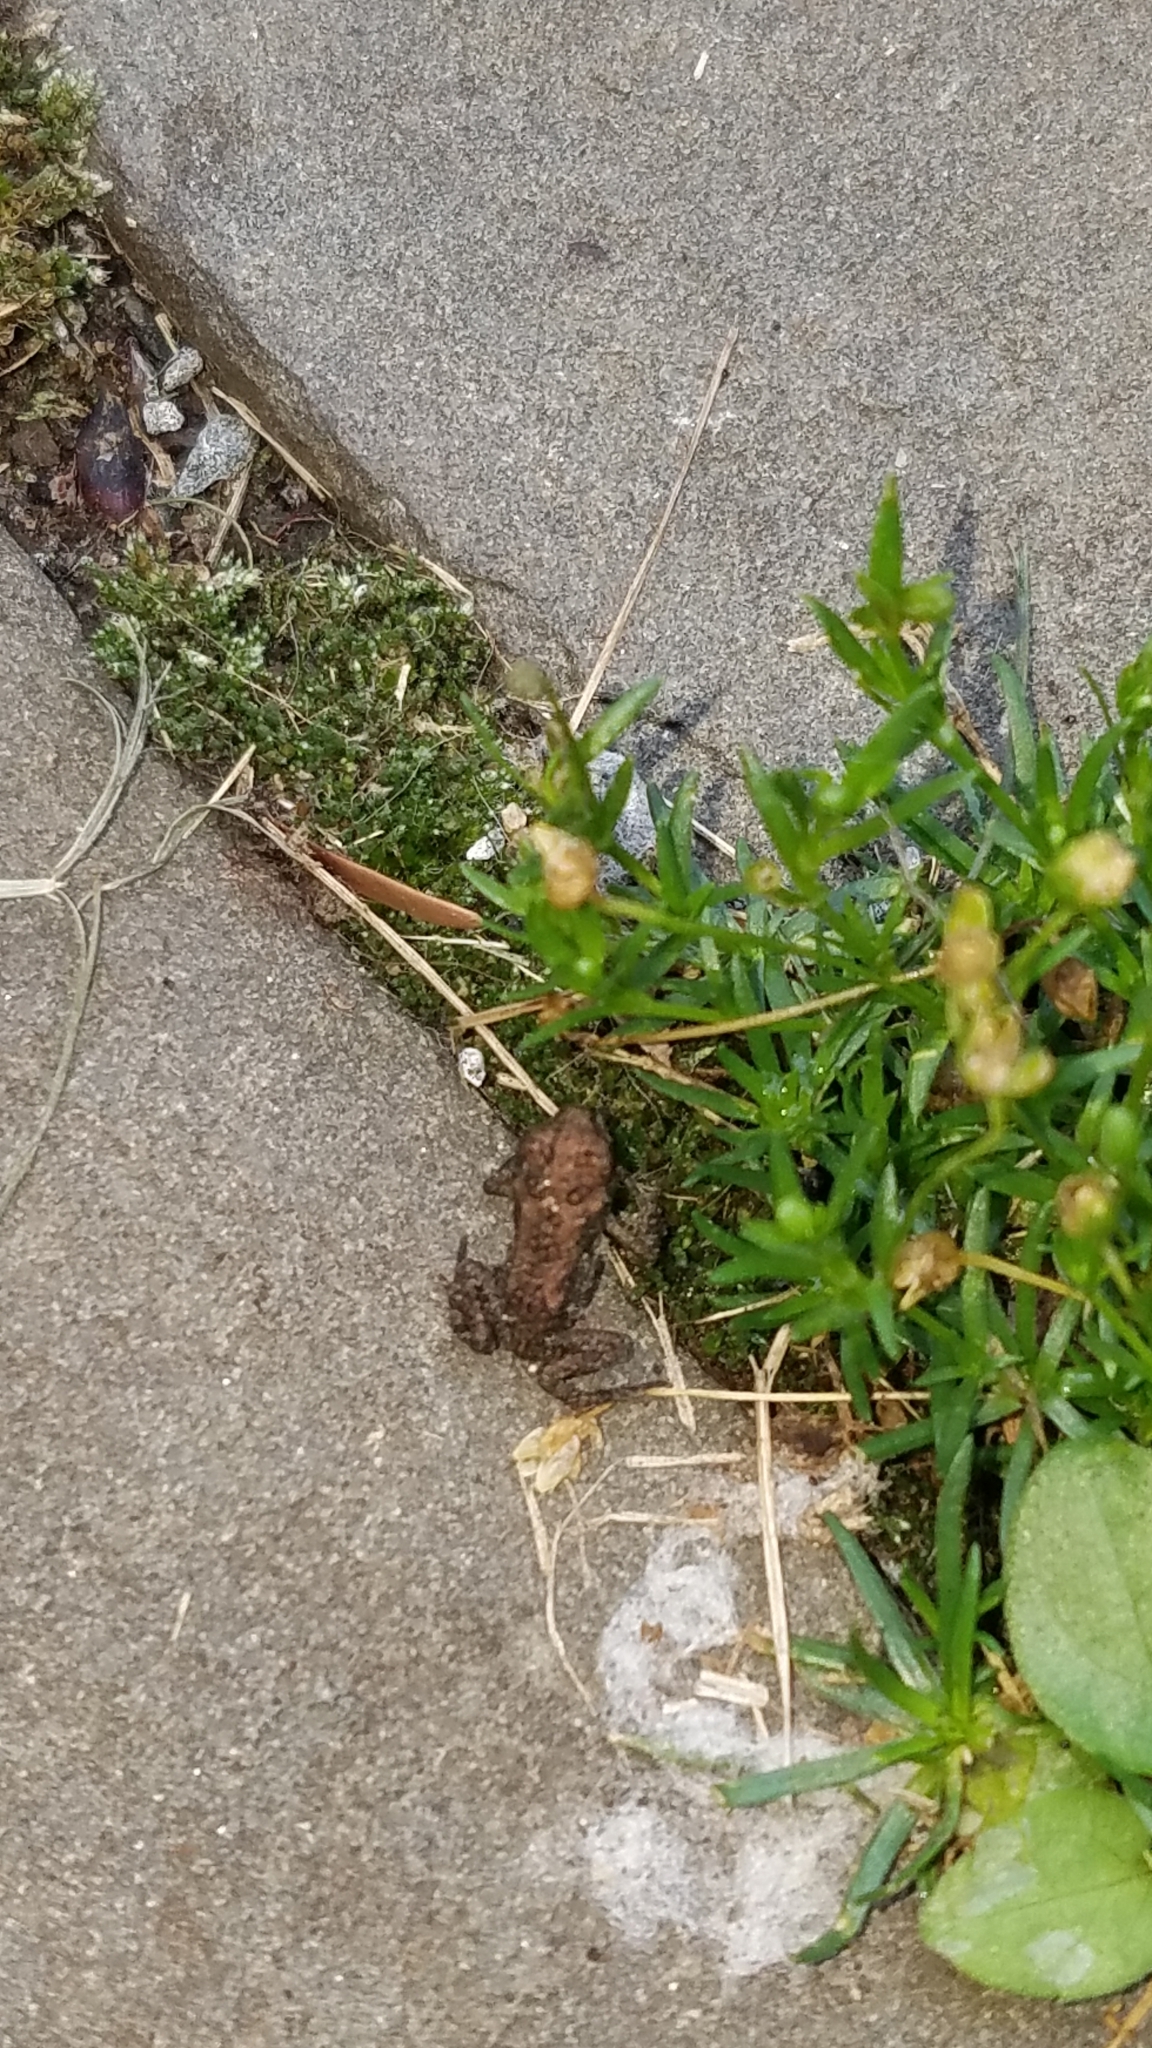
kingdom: Animalia
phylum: Chordata
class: Amphibia
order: Anura
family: Bufonidae
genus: Anaxyrus
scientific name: Anaxyrus
